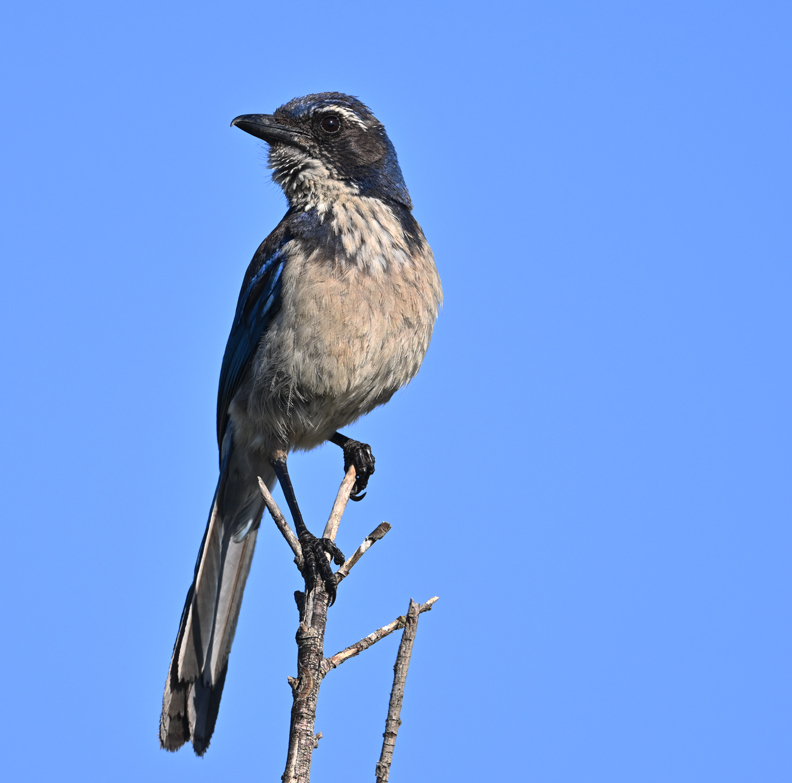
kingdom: Animalia
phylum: Chordata
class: Aves
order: Passeriformes
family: Corvidae
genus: Aphelocoma
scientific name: Aphelocoma californica
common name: California scrub-jay
